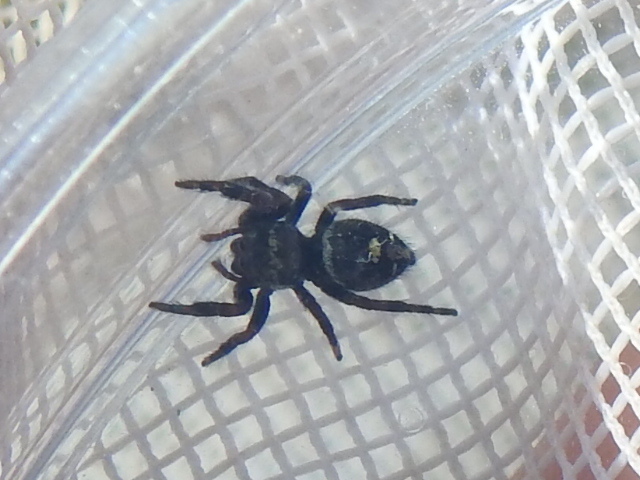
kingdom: Animalia
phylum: Arthropoda
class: Arachnida
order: Araneae
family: Salticidae
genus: Phidippus
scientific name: Phidippus audax
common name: Bold jumper
